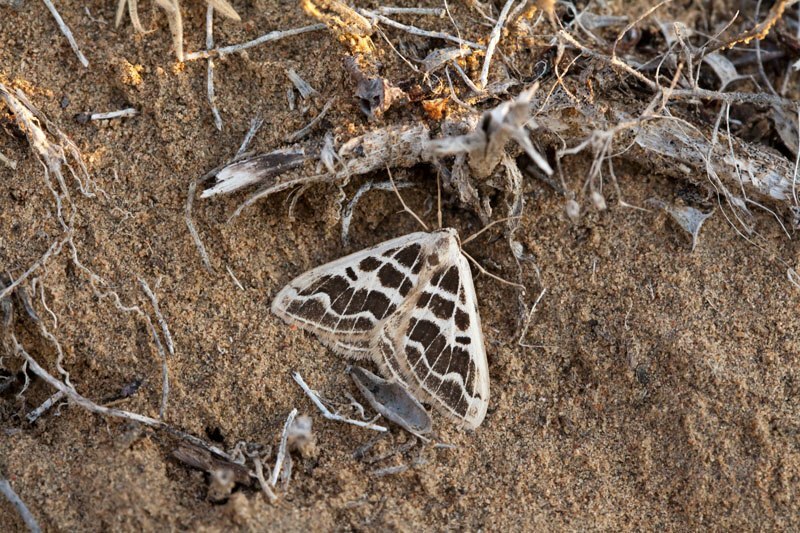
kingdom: Animalia
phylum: Arthropoda
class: Insecta
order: Lepidoptera
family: Geometridae
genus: Rhodostrophia
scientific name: Rhodostrophia
